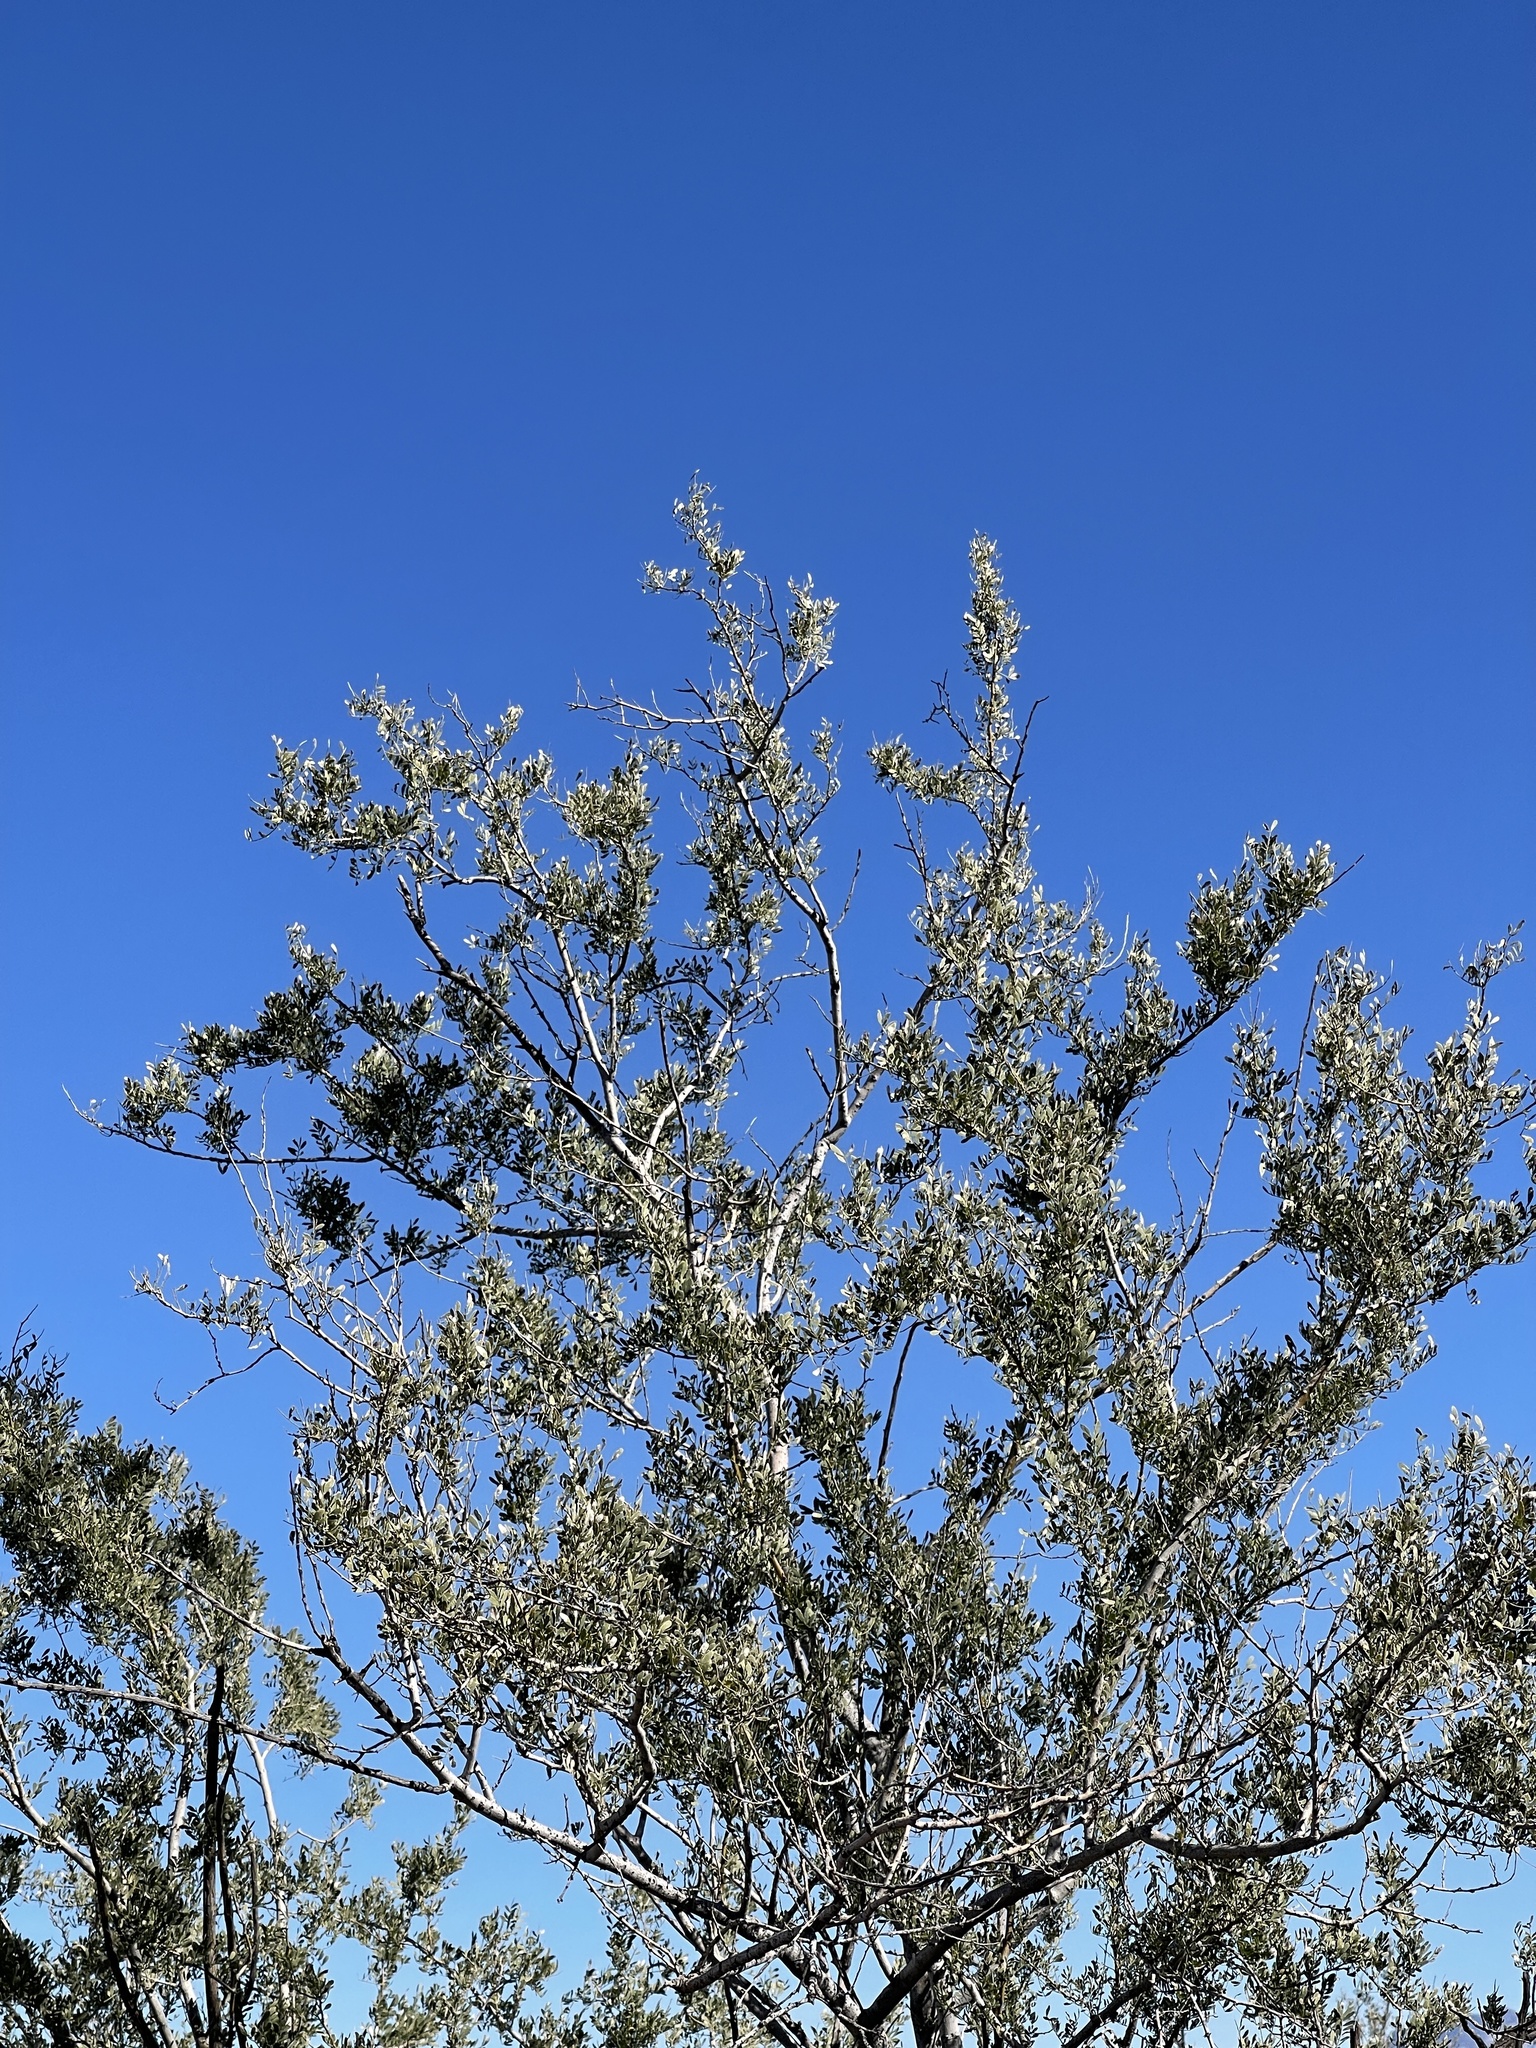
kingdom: Plantae
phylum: Tracheophyta
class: Magnoliopsida
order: Fabales
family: Fabaceae
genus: Olneya
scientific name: Olneya tesota
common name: Desert ironwood
